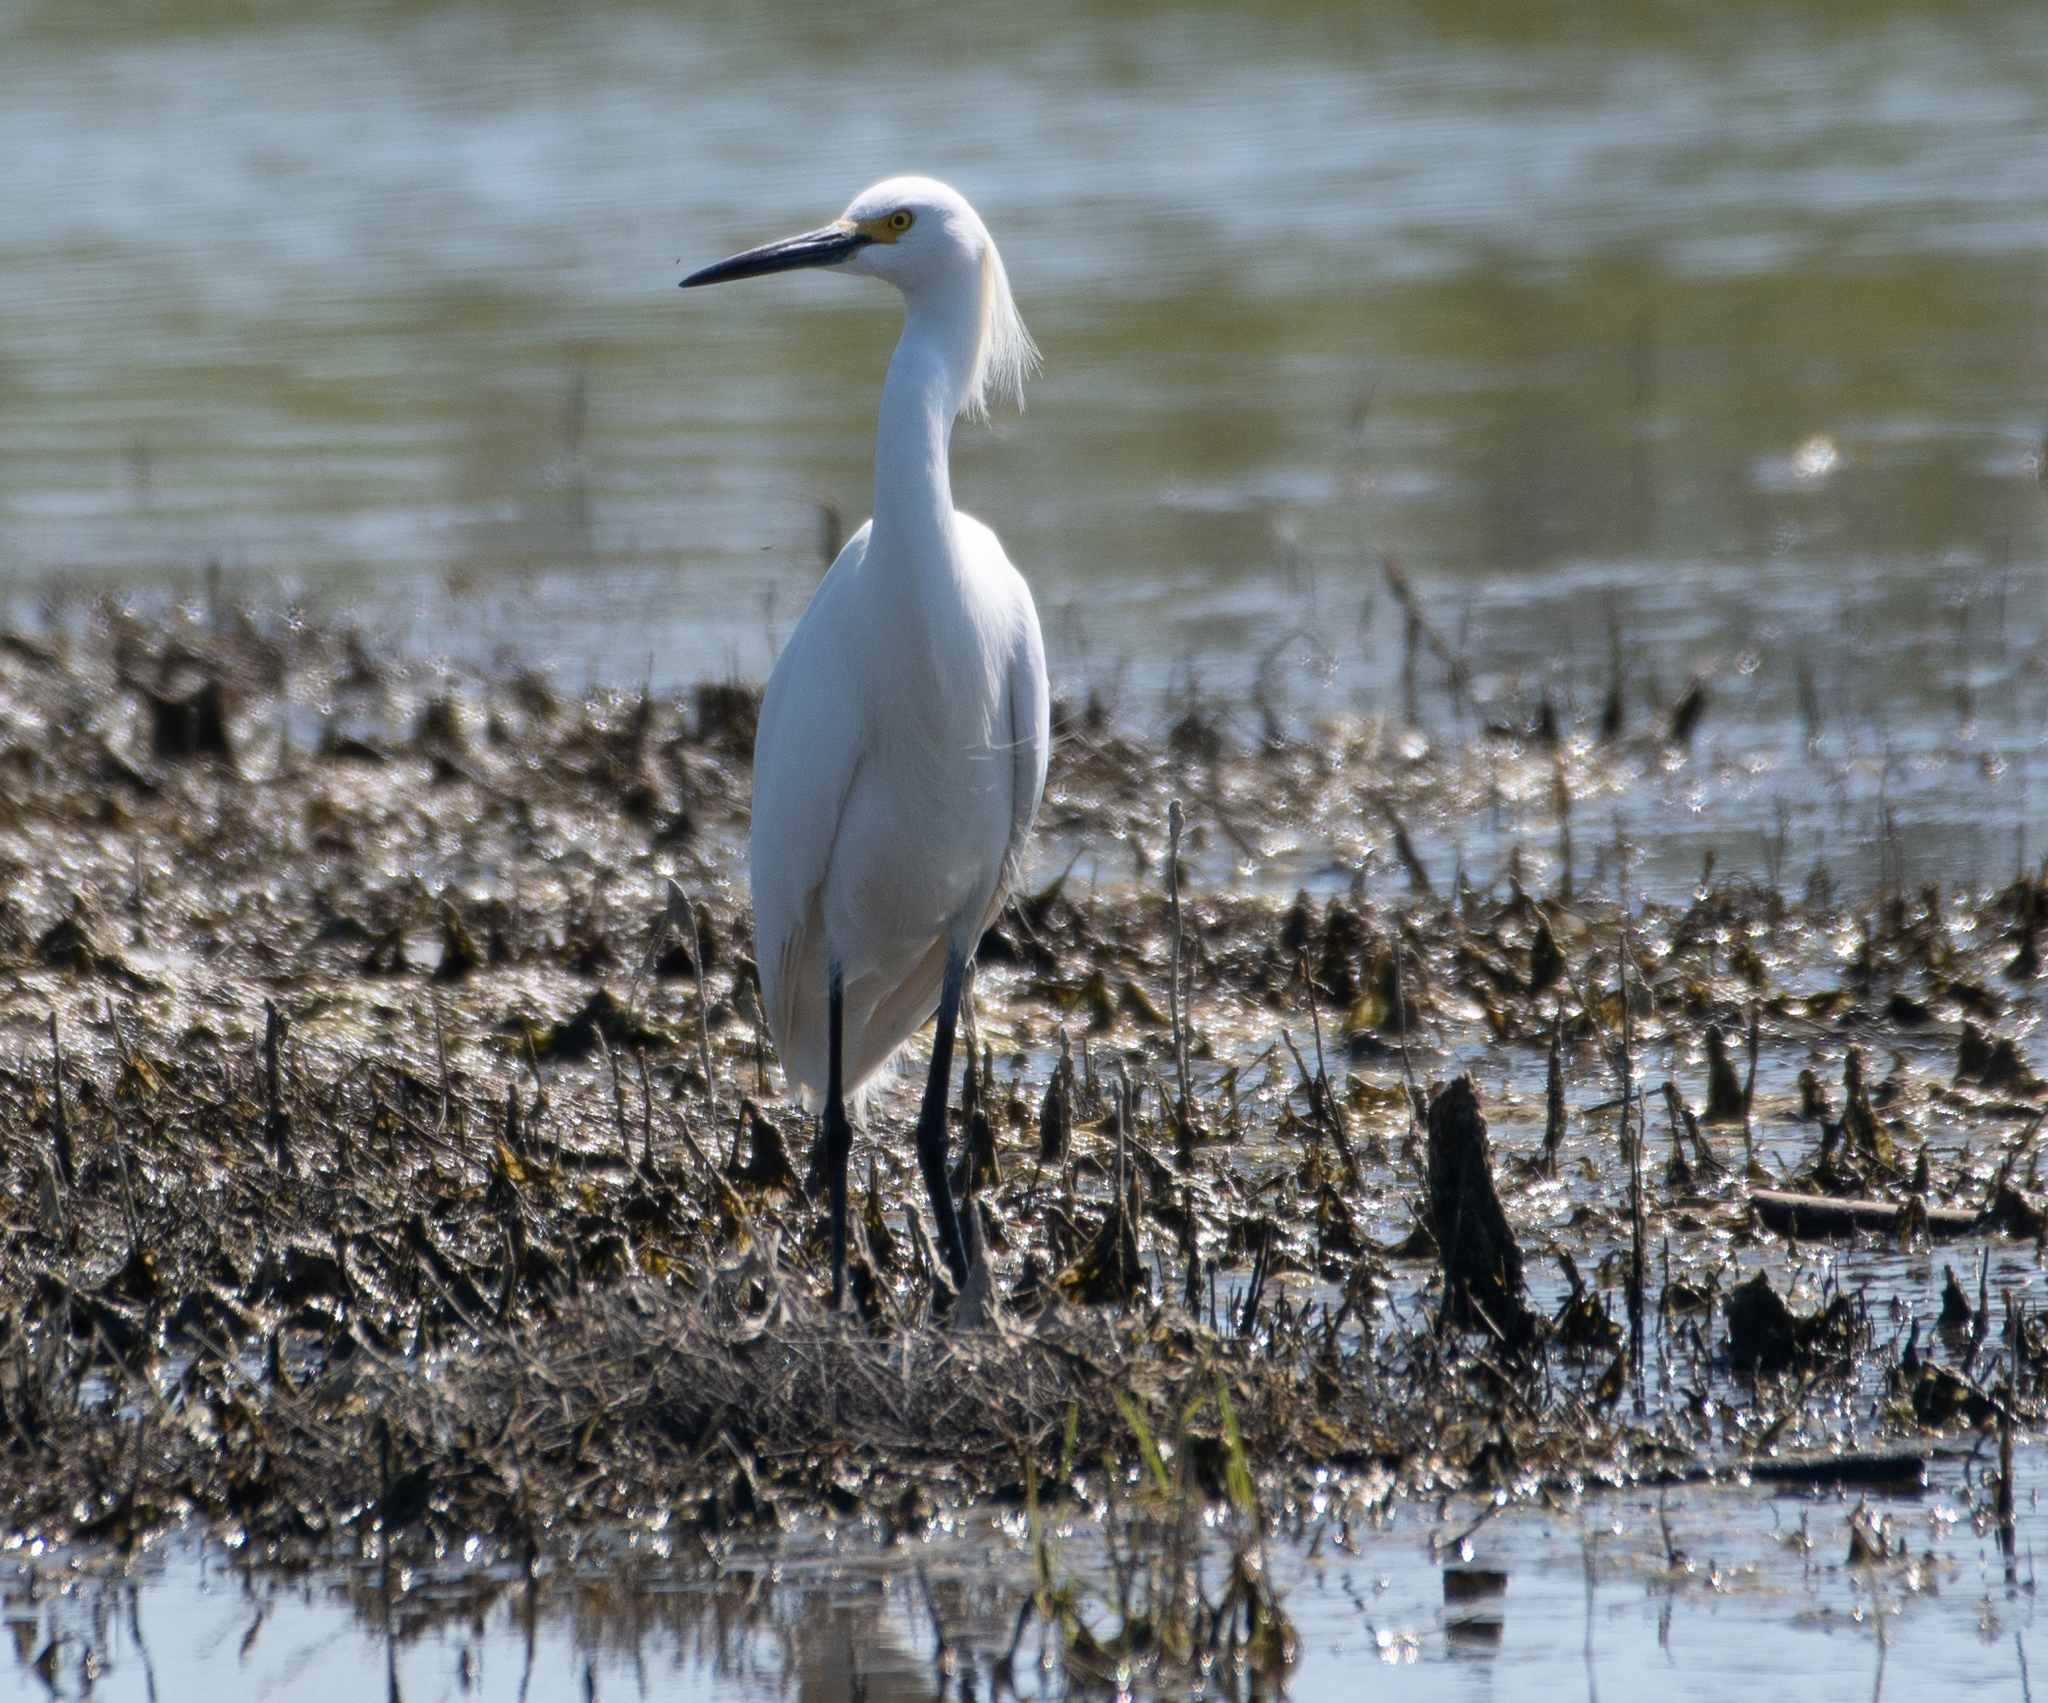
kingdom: Animalia
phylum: Chordata
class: Aves
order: Pelecaniformes
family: Ardeidae
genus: Egretta
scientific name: Egretta thula
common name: Snowy egret
